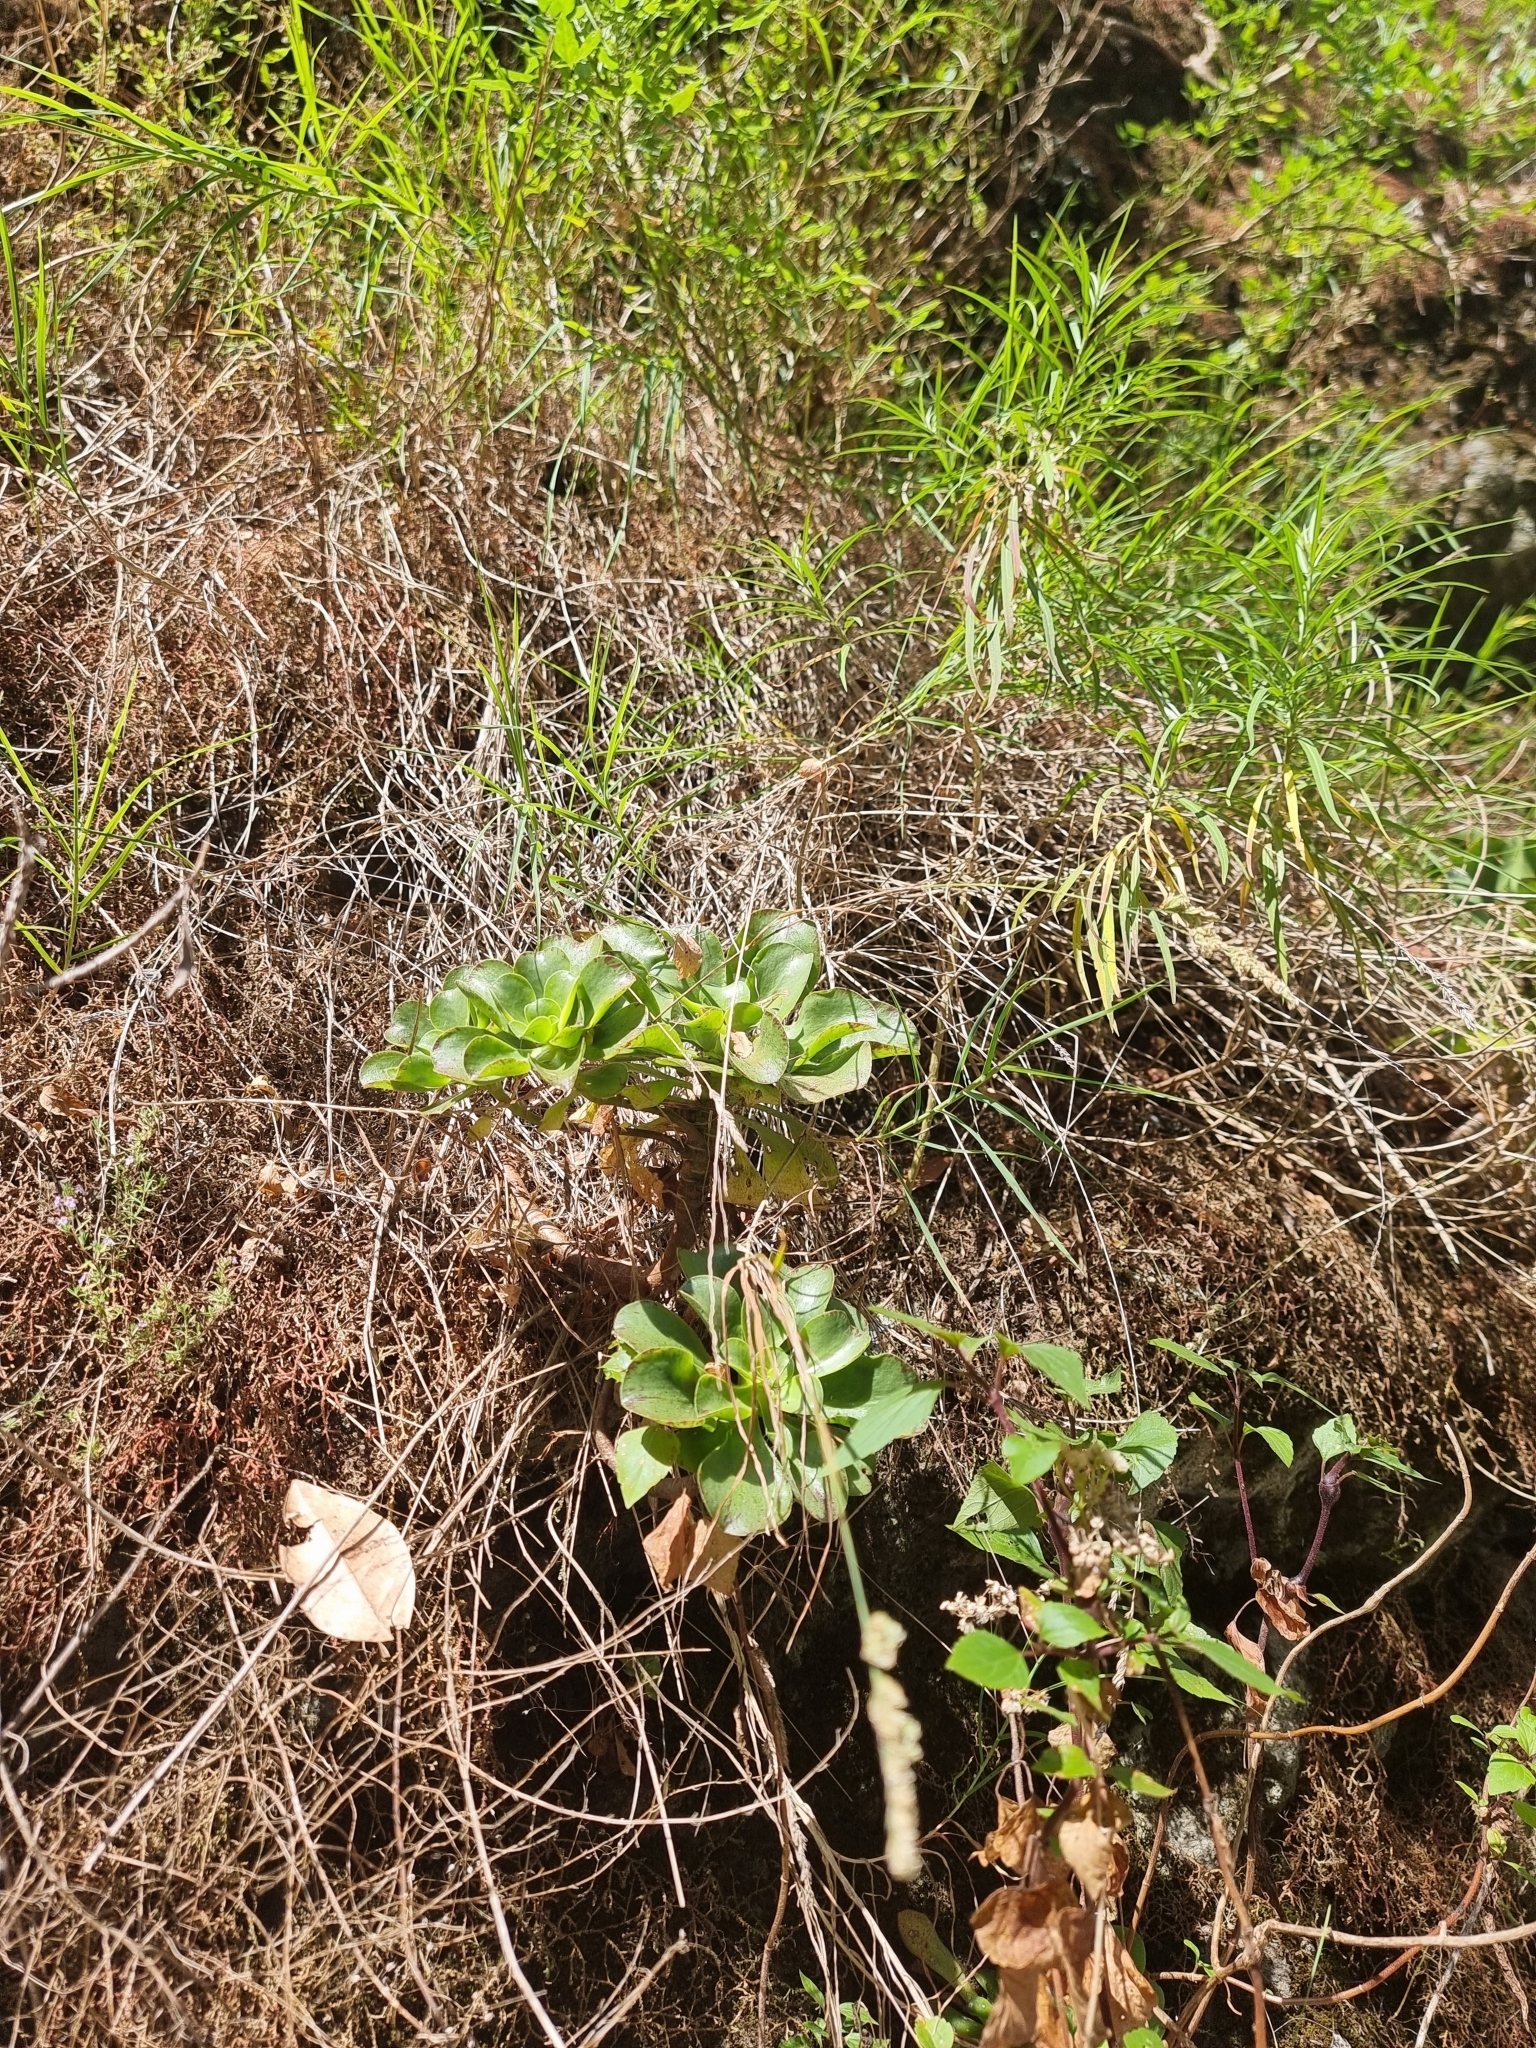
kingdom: Plantae
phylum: Tracheophyta
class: Magnoliopsida
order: Saxifragales
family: Crassulaceae
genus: Aeonium
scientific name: Aeonium glutinosum
